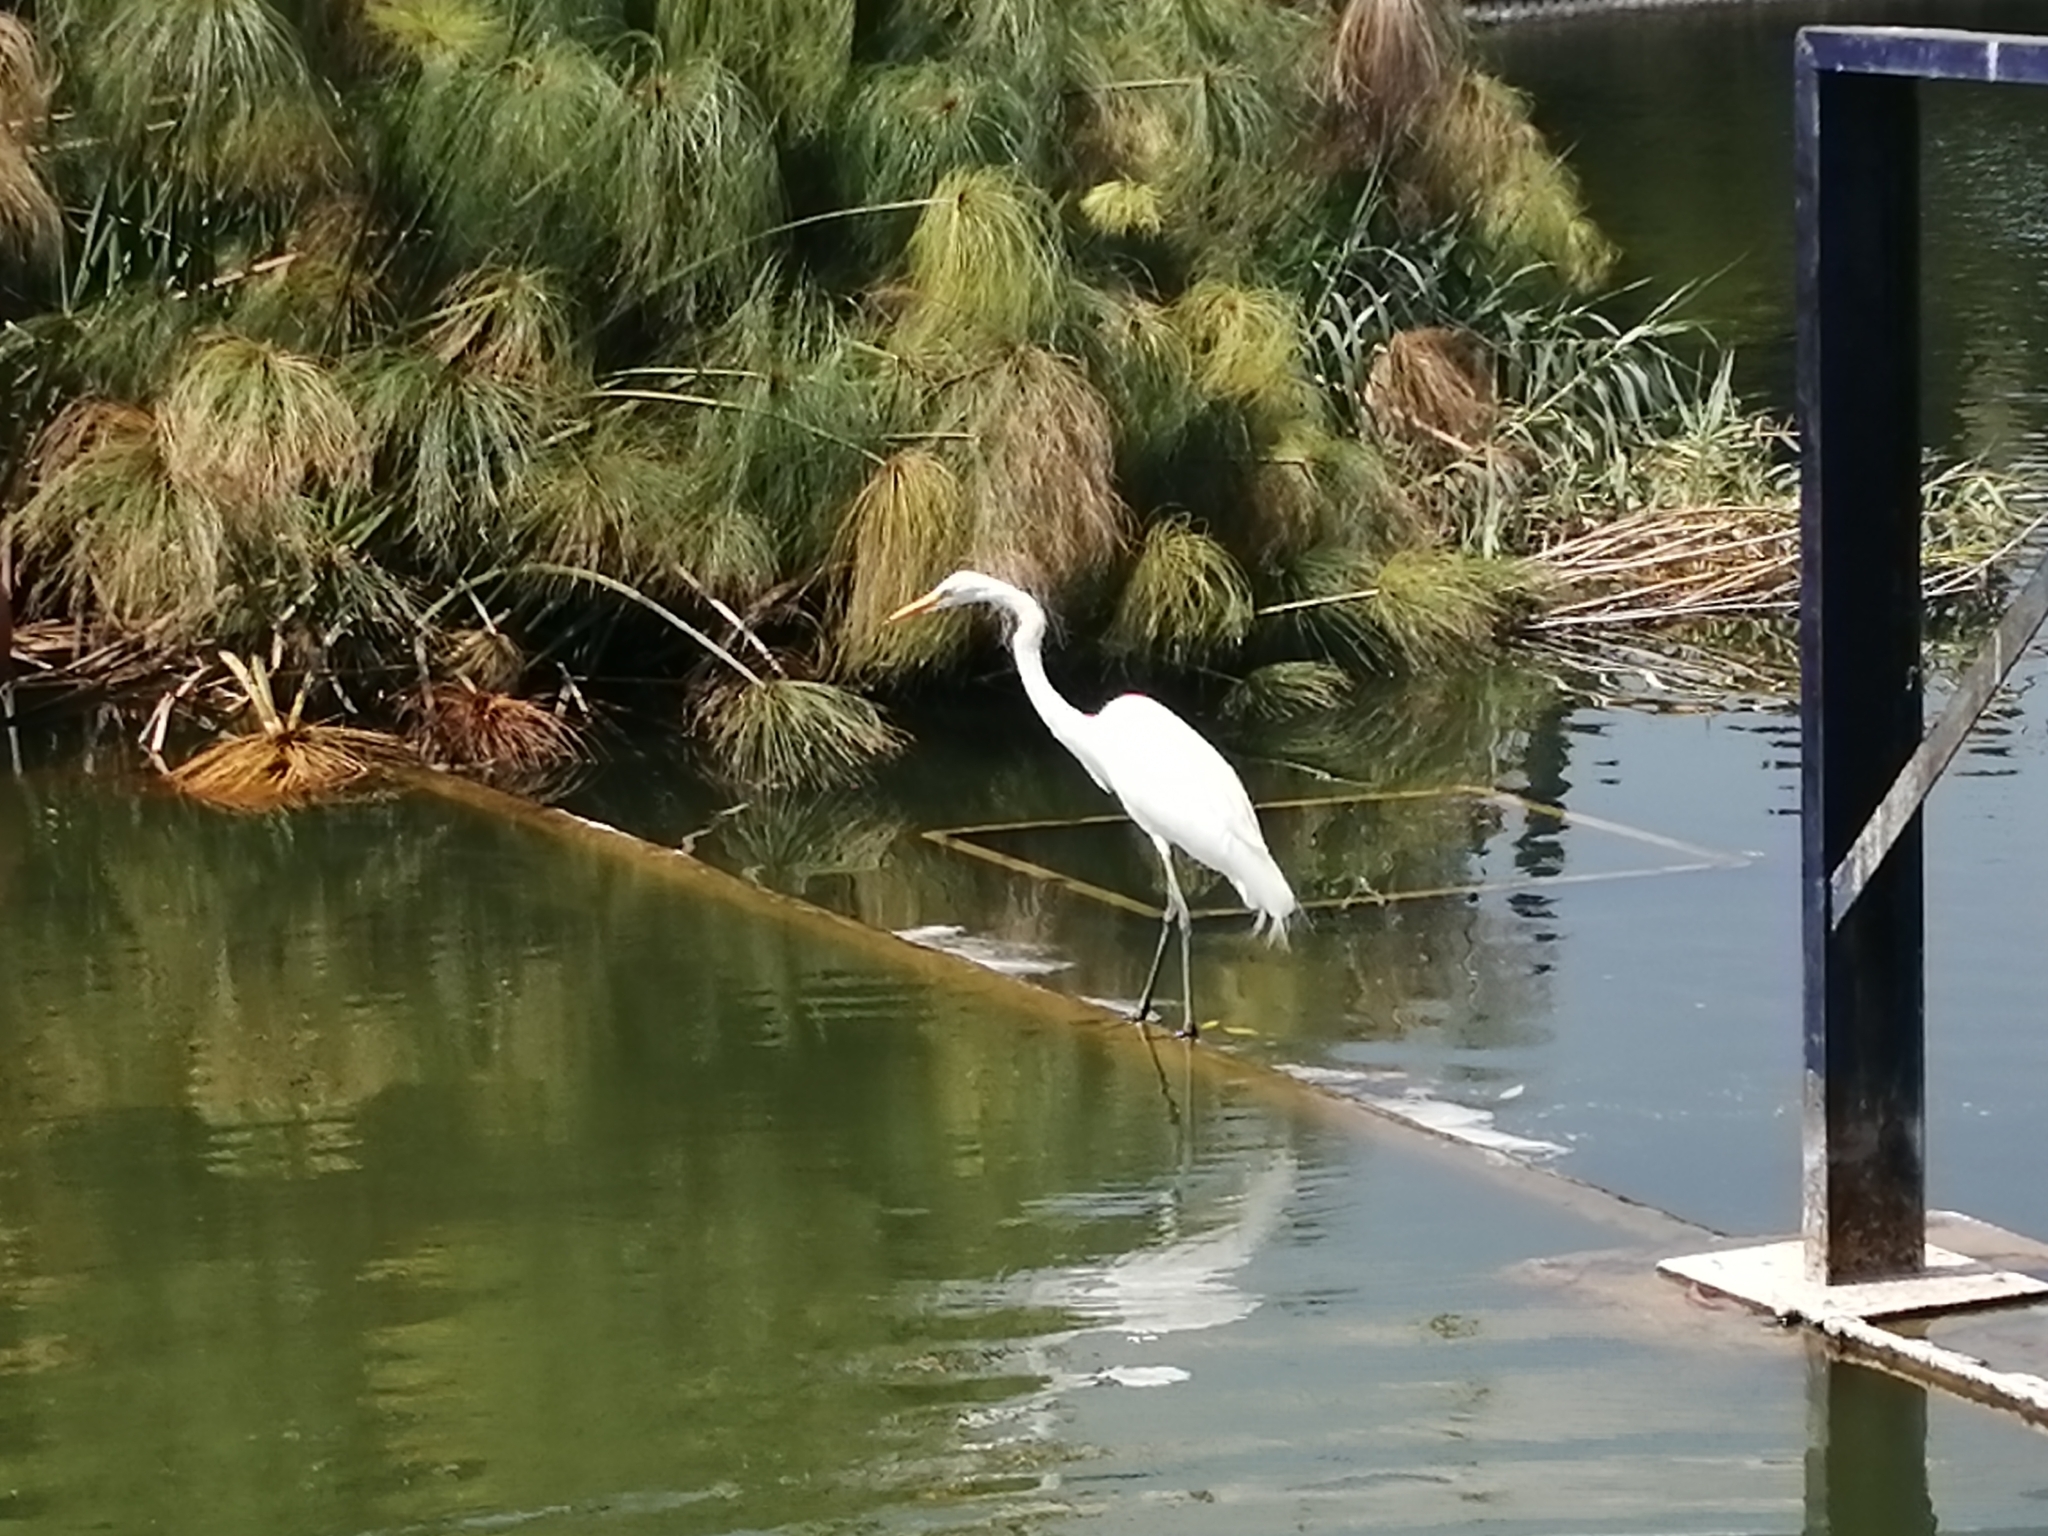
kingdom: Animalia
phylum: Chordata
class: Aves
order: Pelecaniformes
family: Ardeidae
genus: Ardea
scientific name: Ardea alba
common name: Great egret
